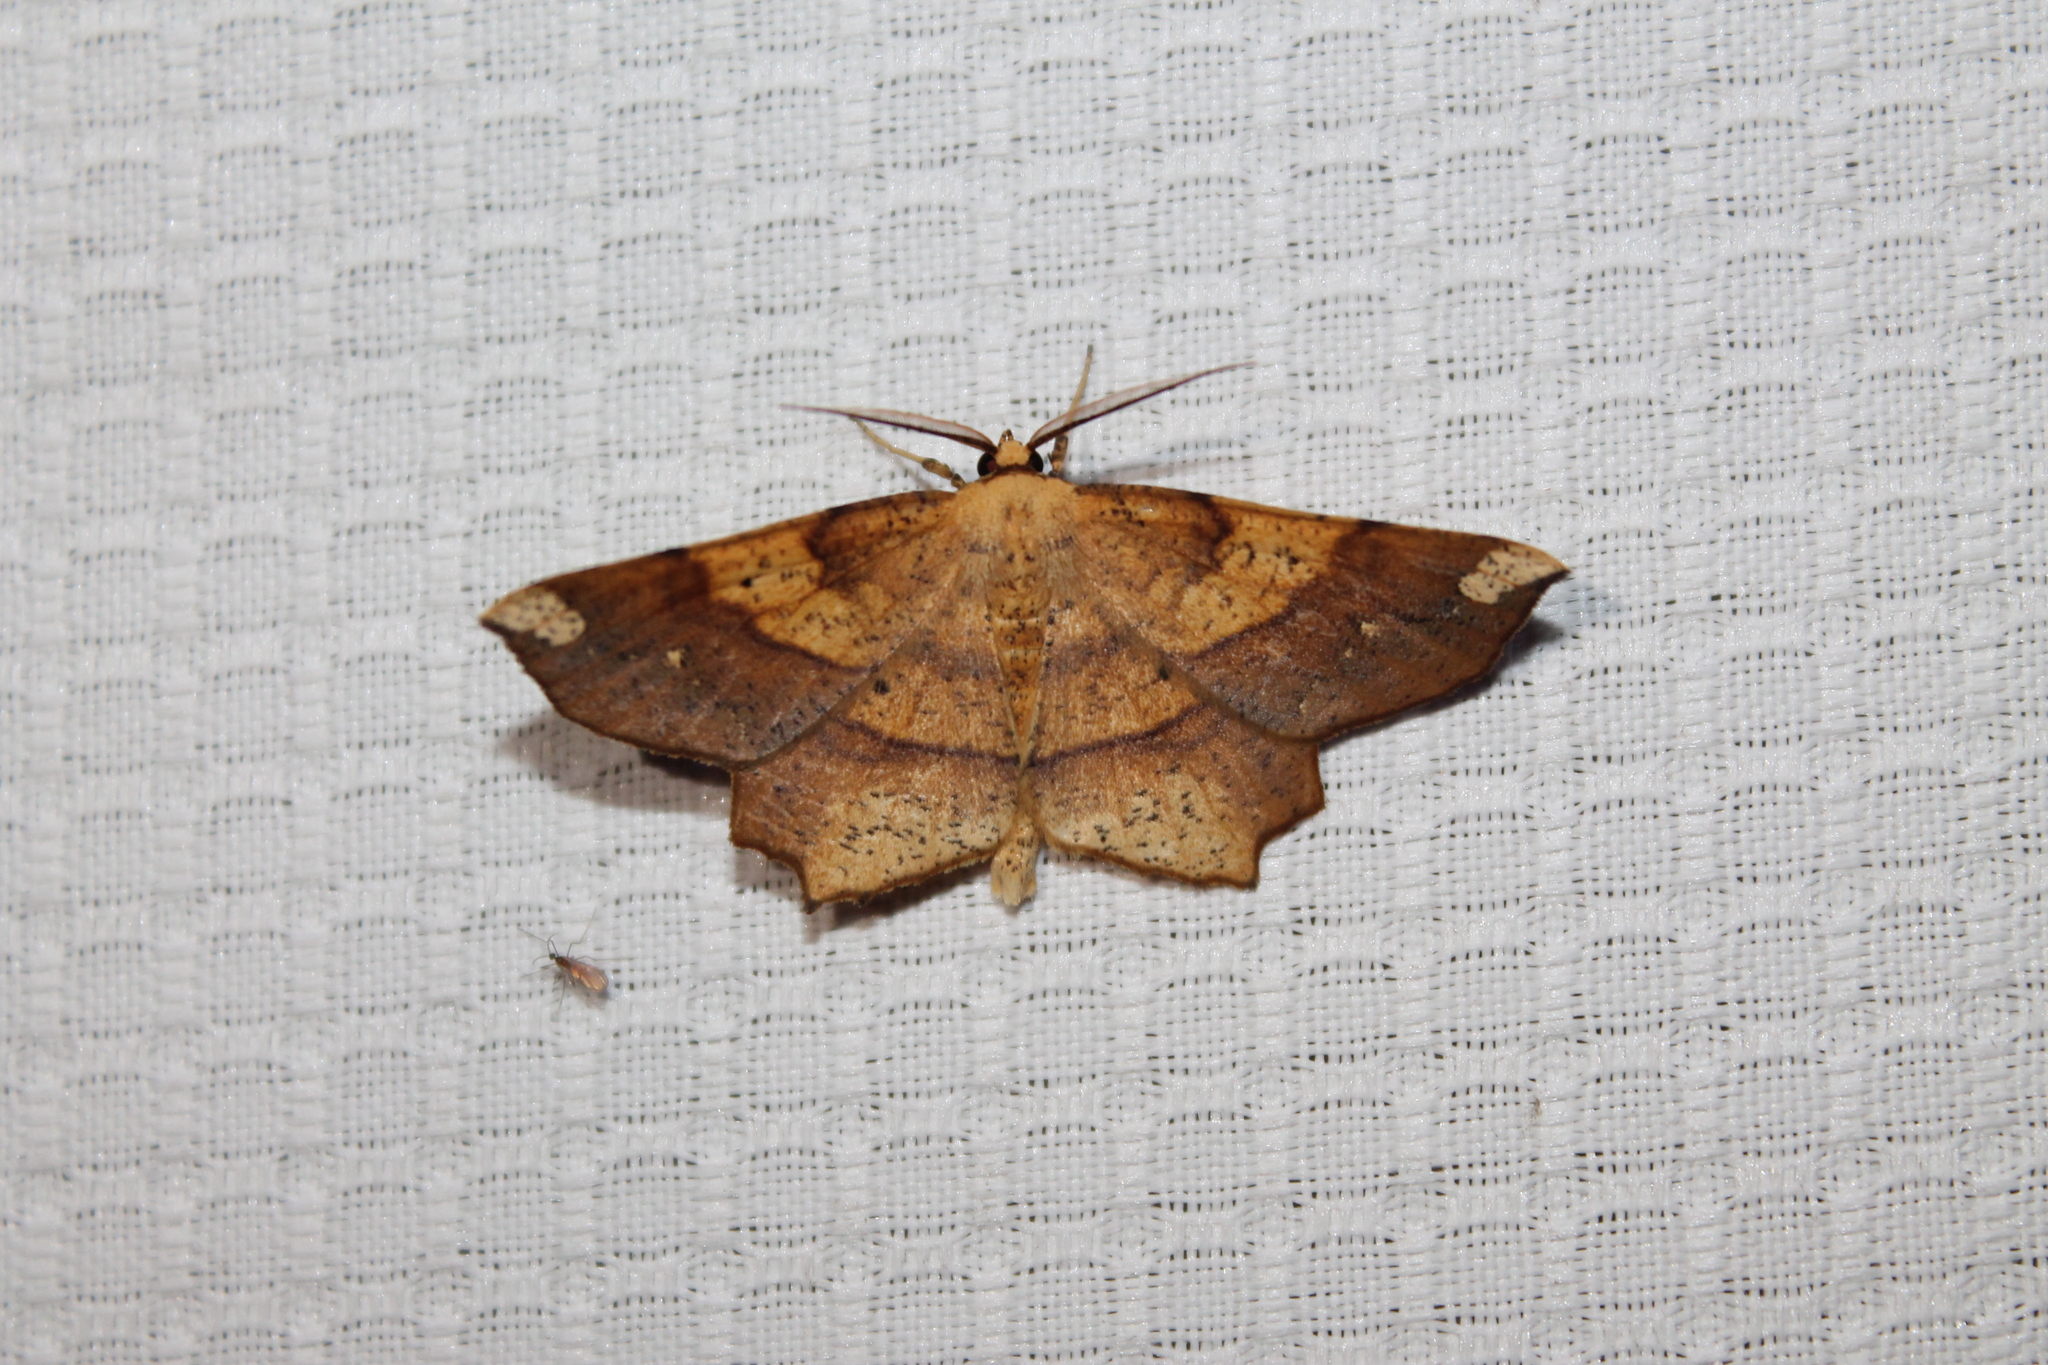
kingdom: Animalia
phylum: Arthropoda
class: Insecta
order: Lepidoptera
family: Geometridae
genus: Euchlaena
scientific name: Euchlaena amoenaria
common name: Deep yellow euchlaena
